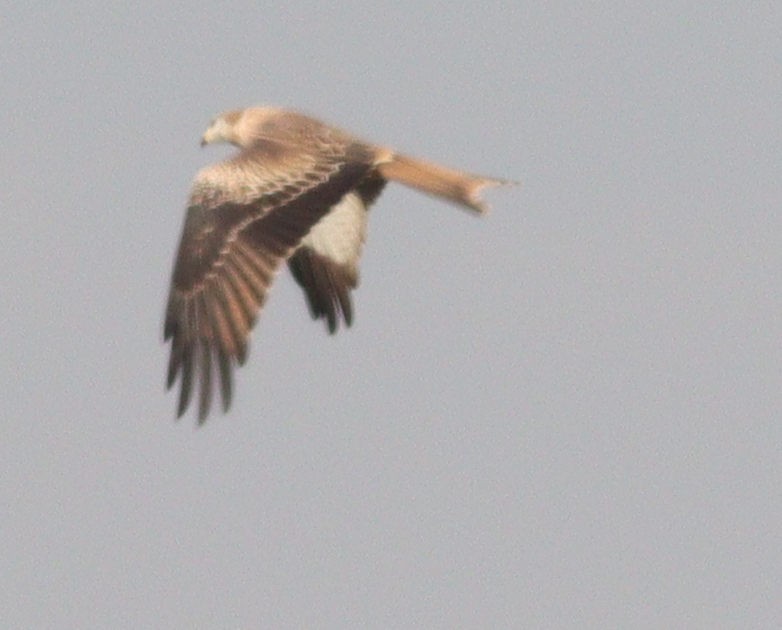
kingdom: Animalia
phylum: Chordata
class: Aves
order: Accipitriformes
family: Accipitridae
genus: Milvus
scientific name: Milvus milvus
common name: Red kite
